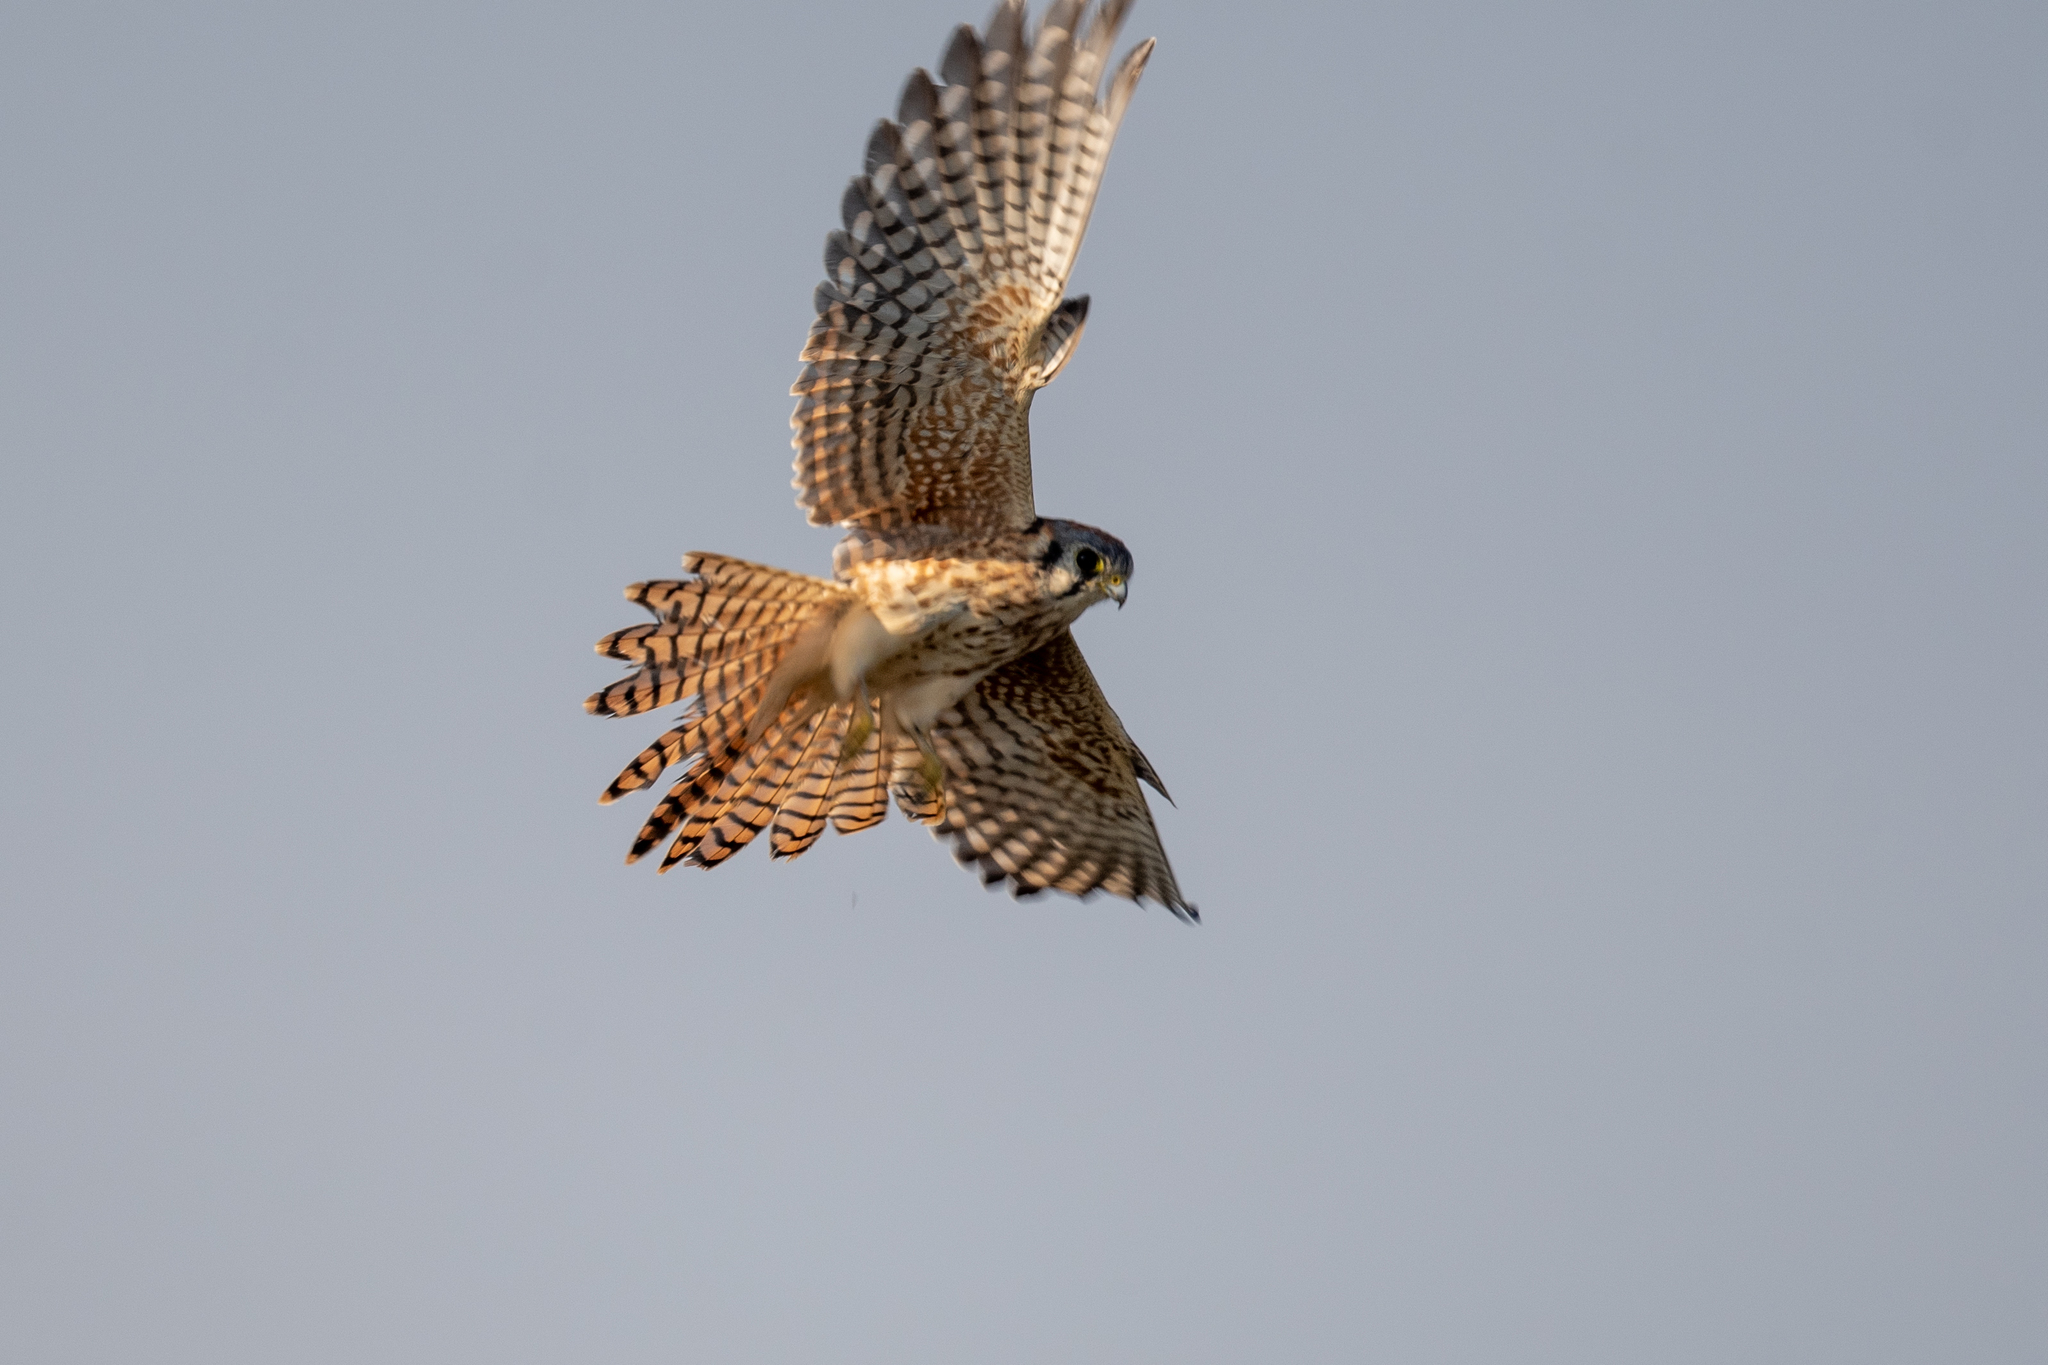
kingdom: Animalia
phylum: Chordata
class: Aves
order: Falconiformes
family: Falconidae
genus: Falco
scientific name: Falco sparverius
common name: American kestrel
